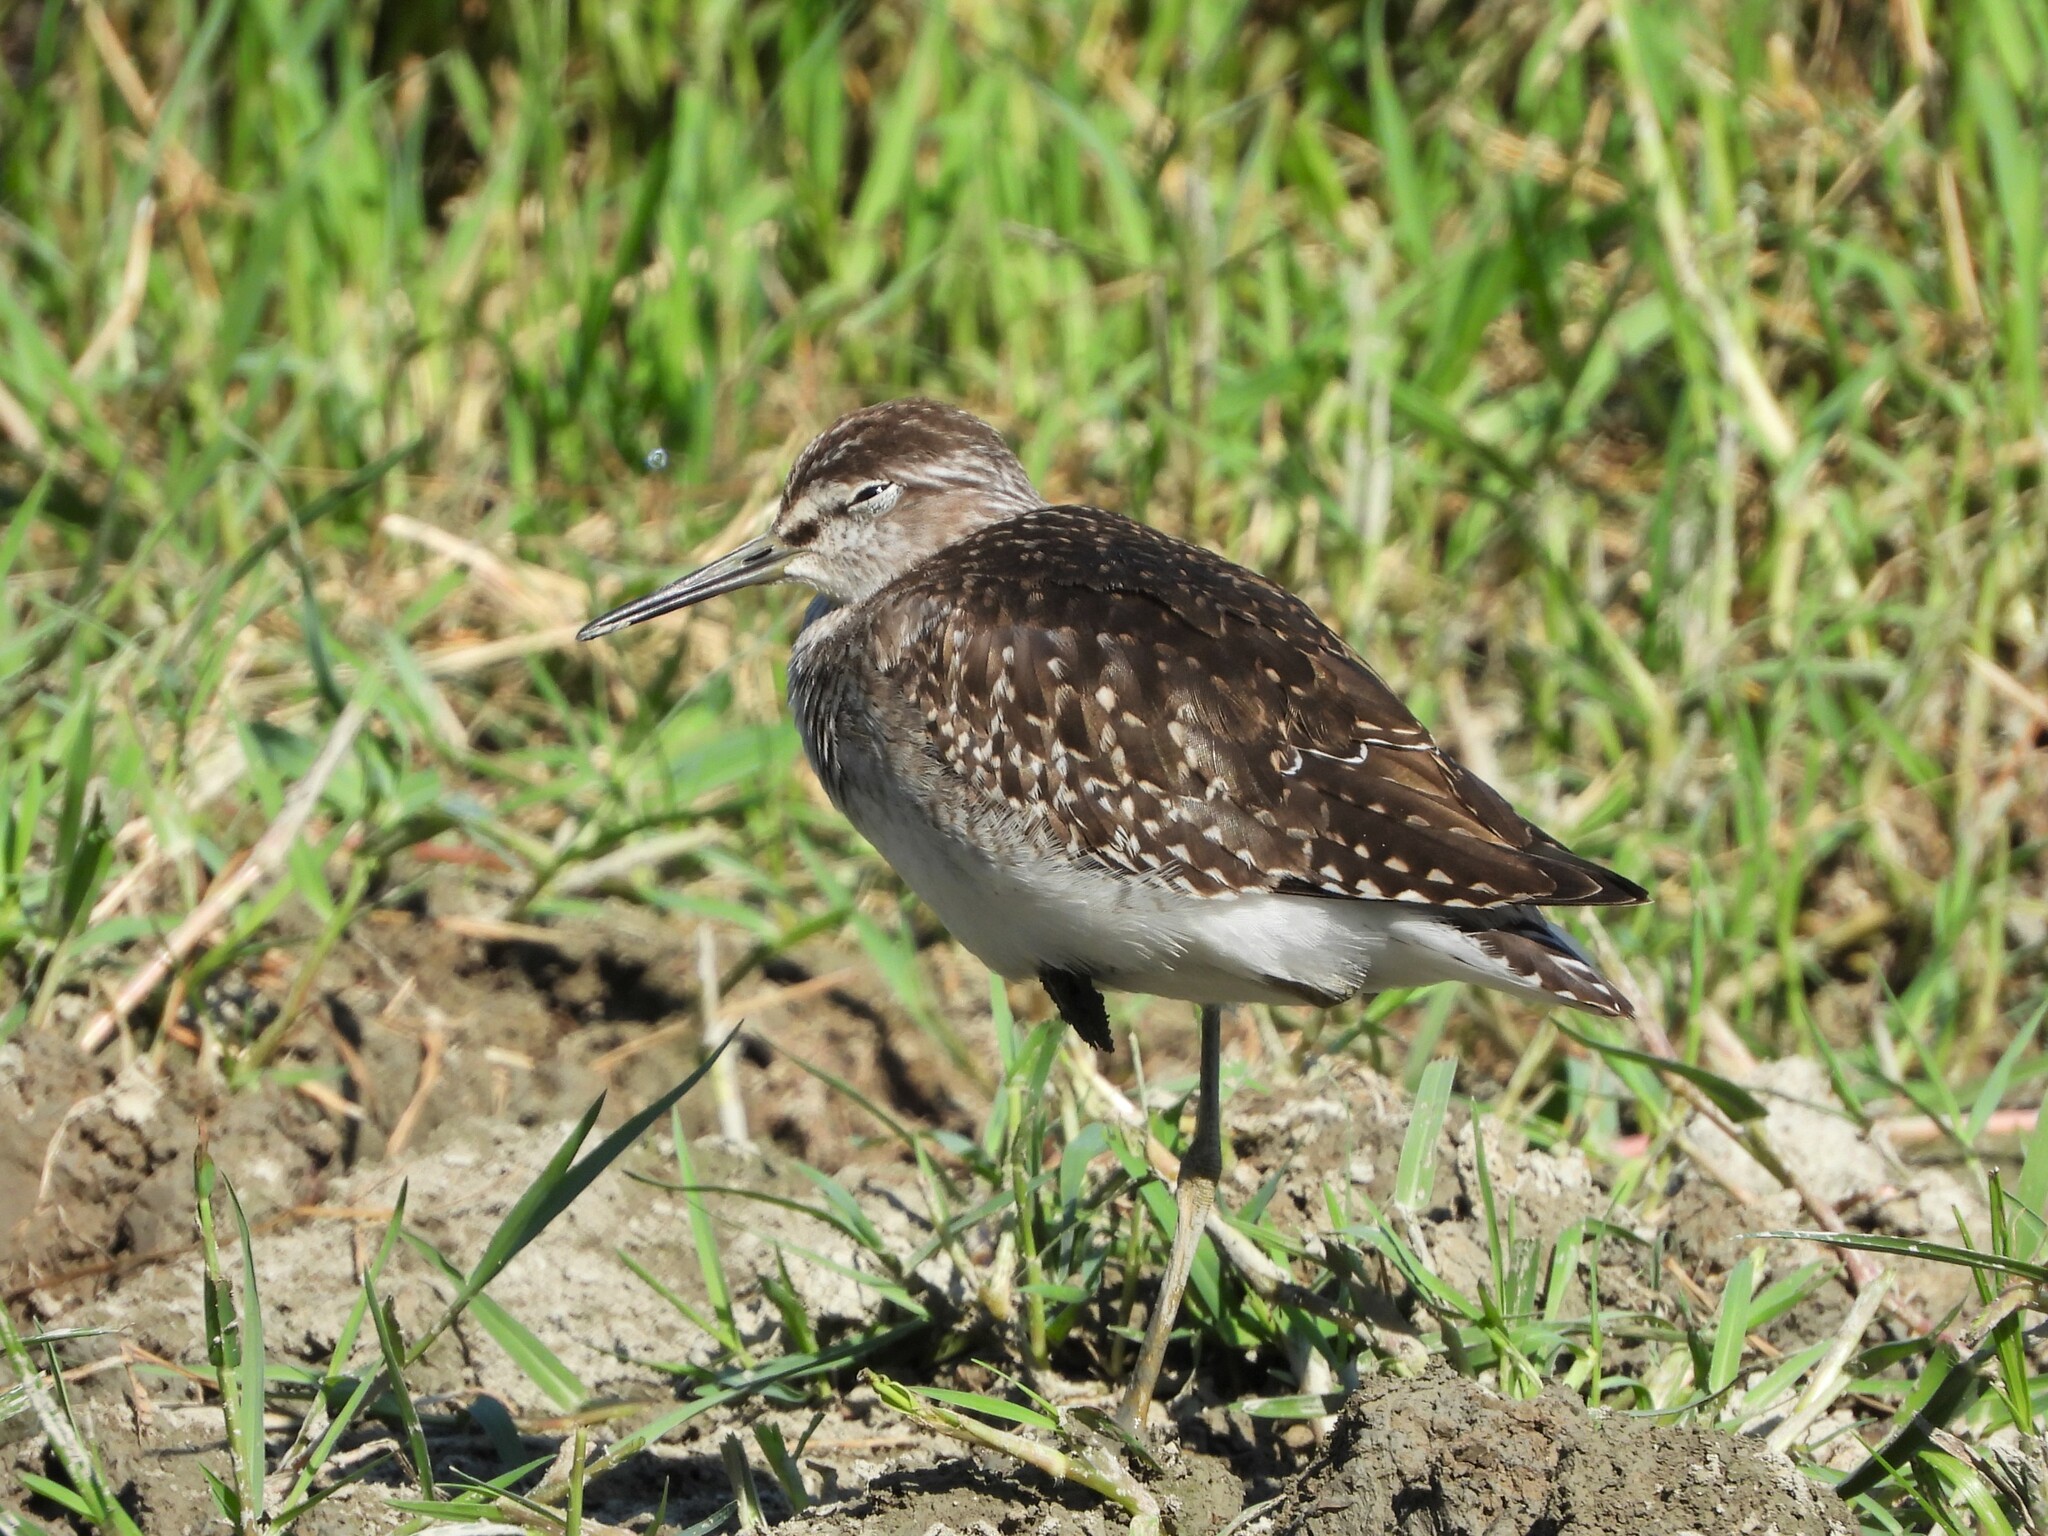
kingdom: Animalia
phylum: Chordata
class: Aves
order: Charadriiformes
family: Scolopacidae
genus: Tringa
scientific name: Tringa glareola
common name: Wood sandpiper
